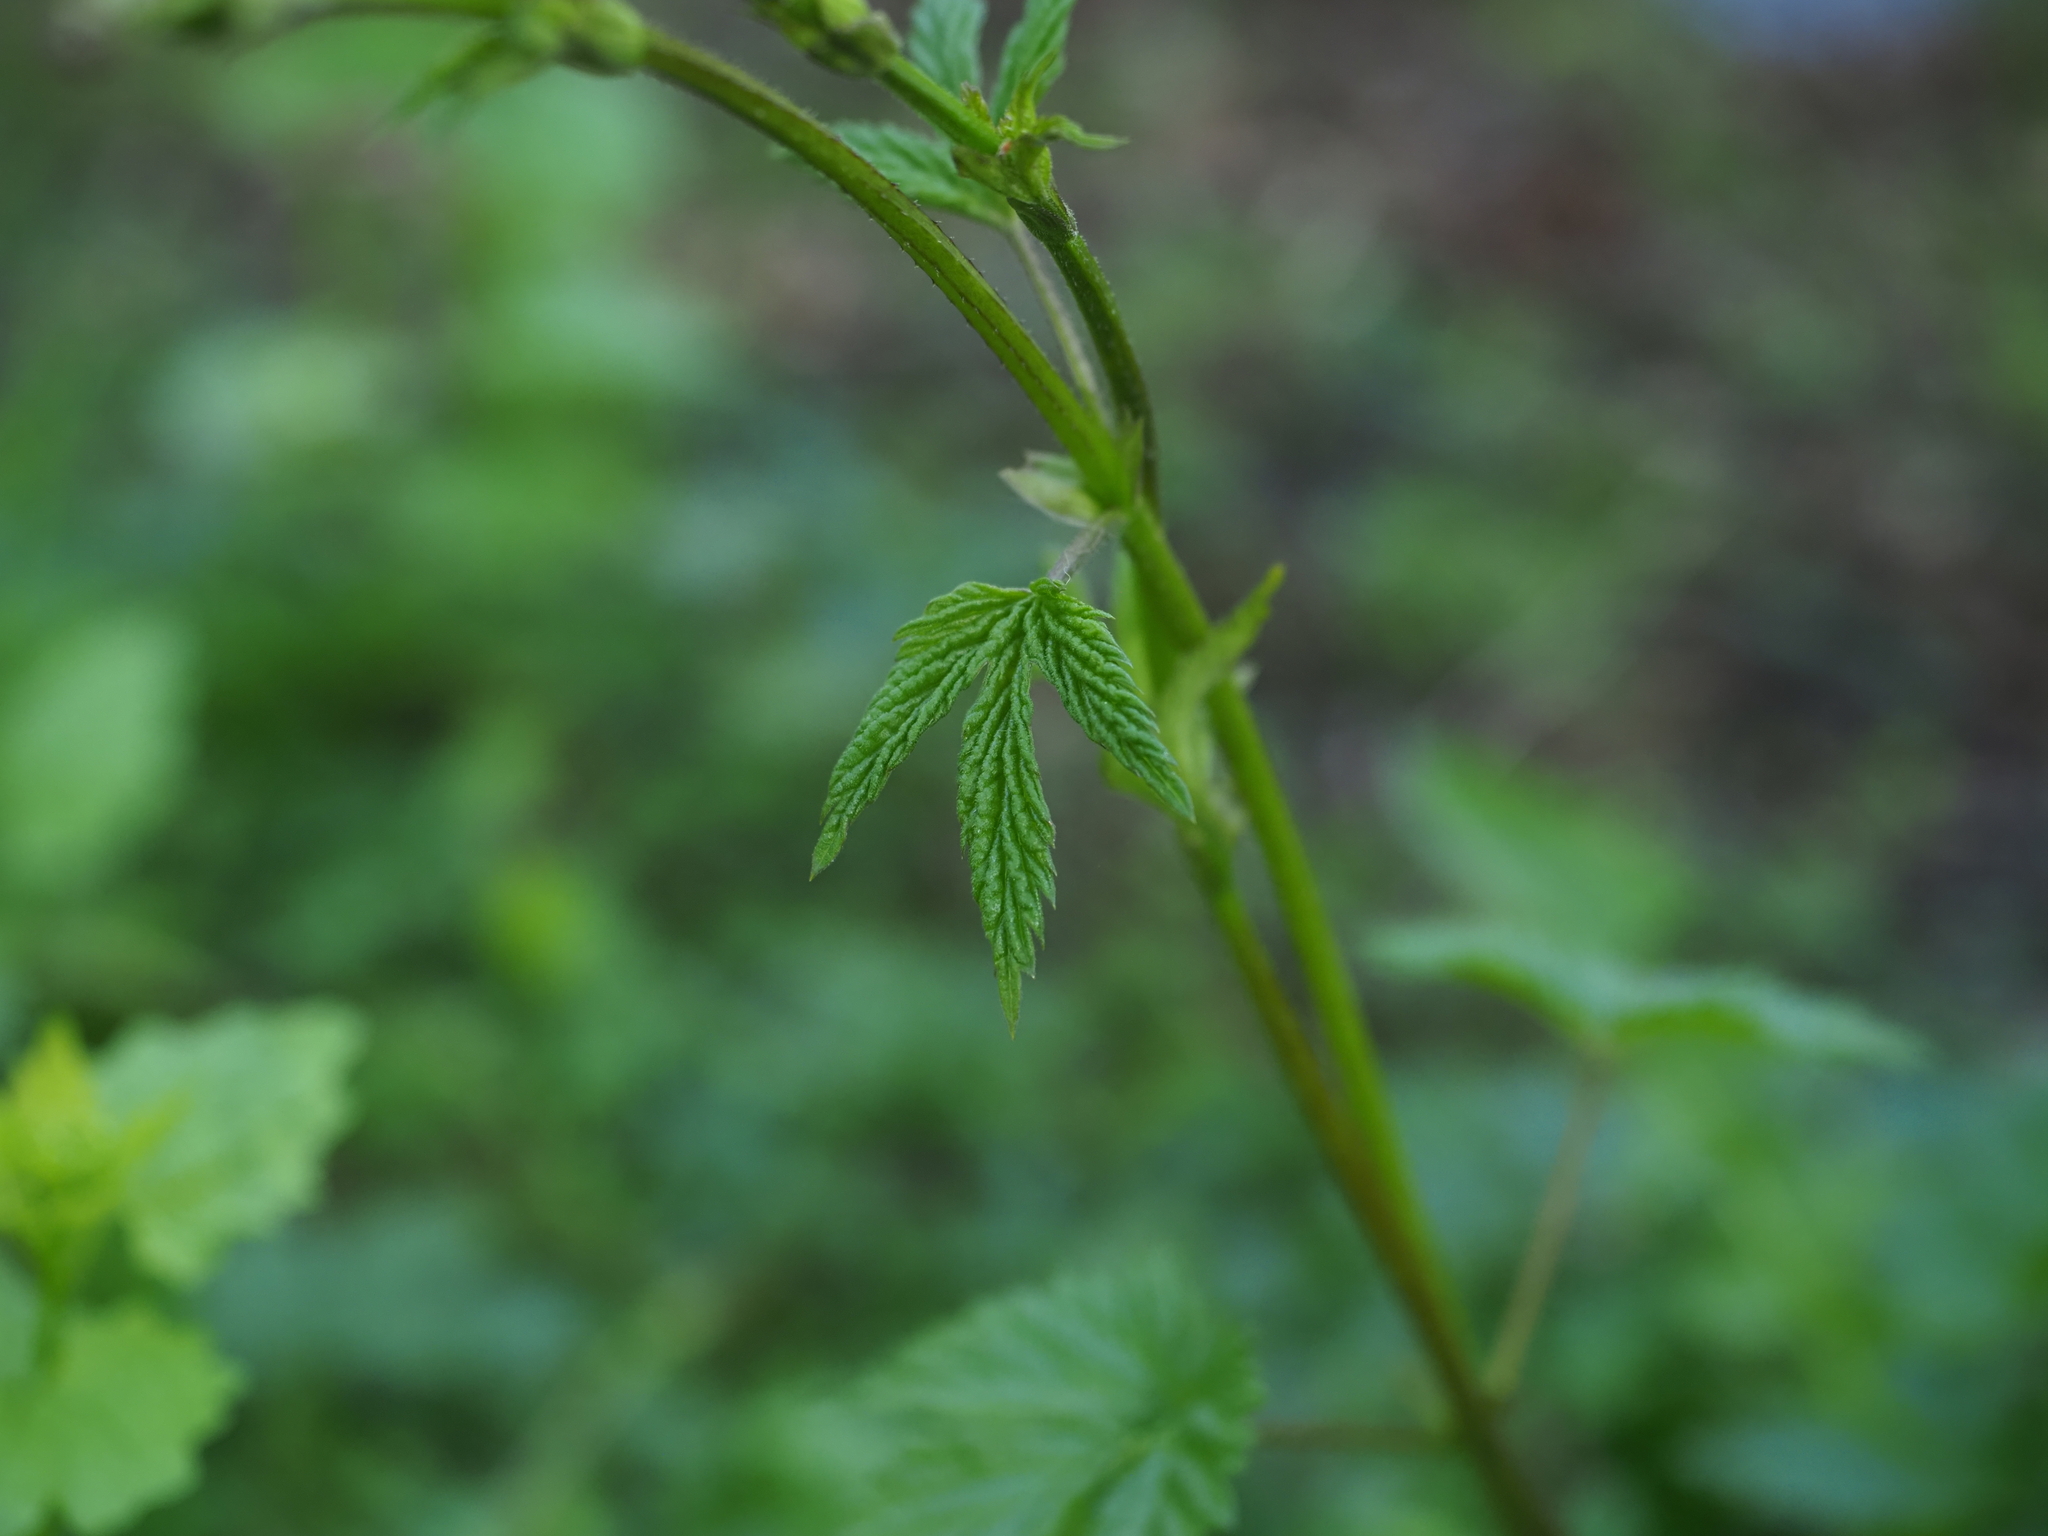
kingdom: Plantae
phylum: Tracheophyta
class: Magnoliopsida
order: Rosales
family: Cannabaceae
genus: Humulus
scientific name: Humulus lupulus
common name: Hop
